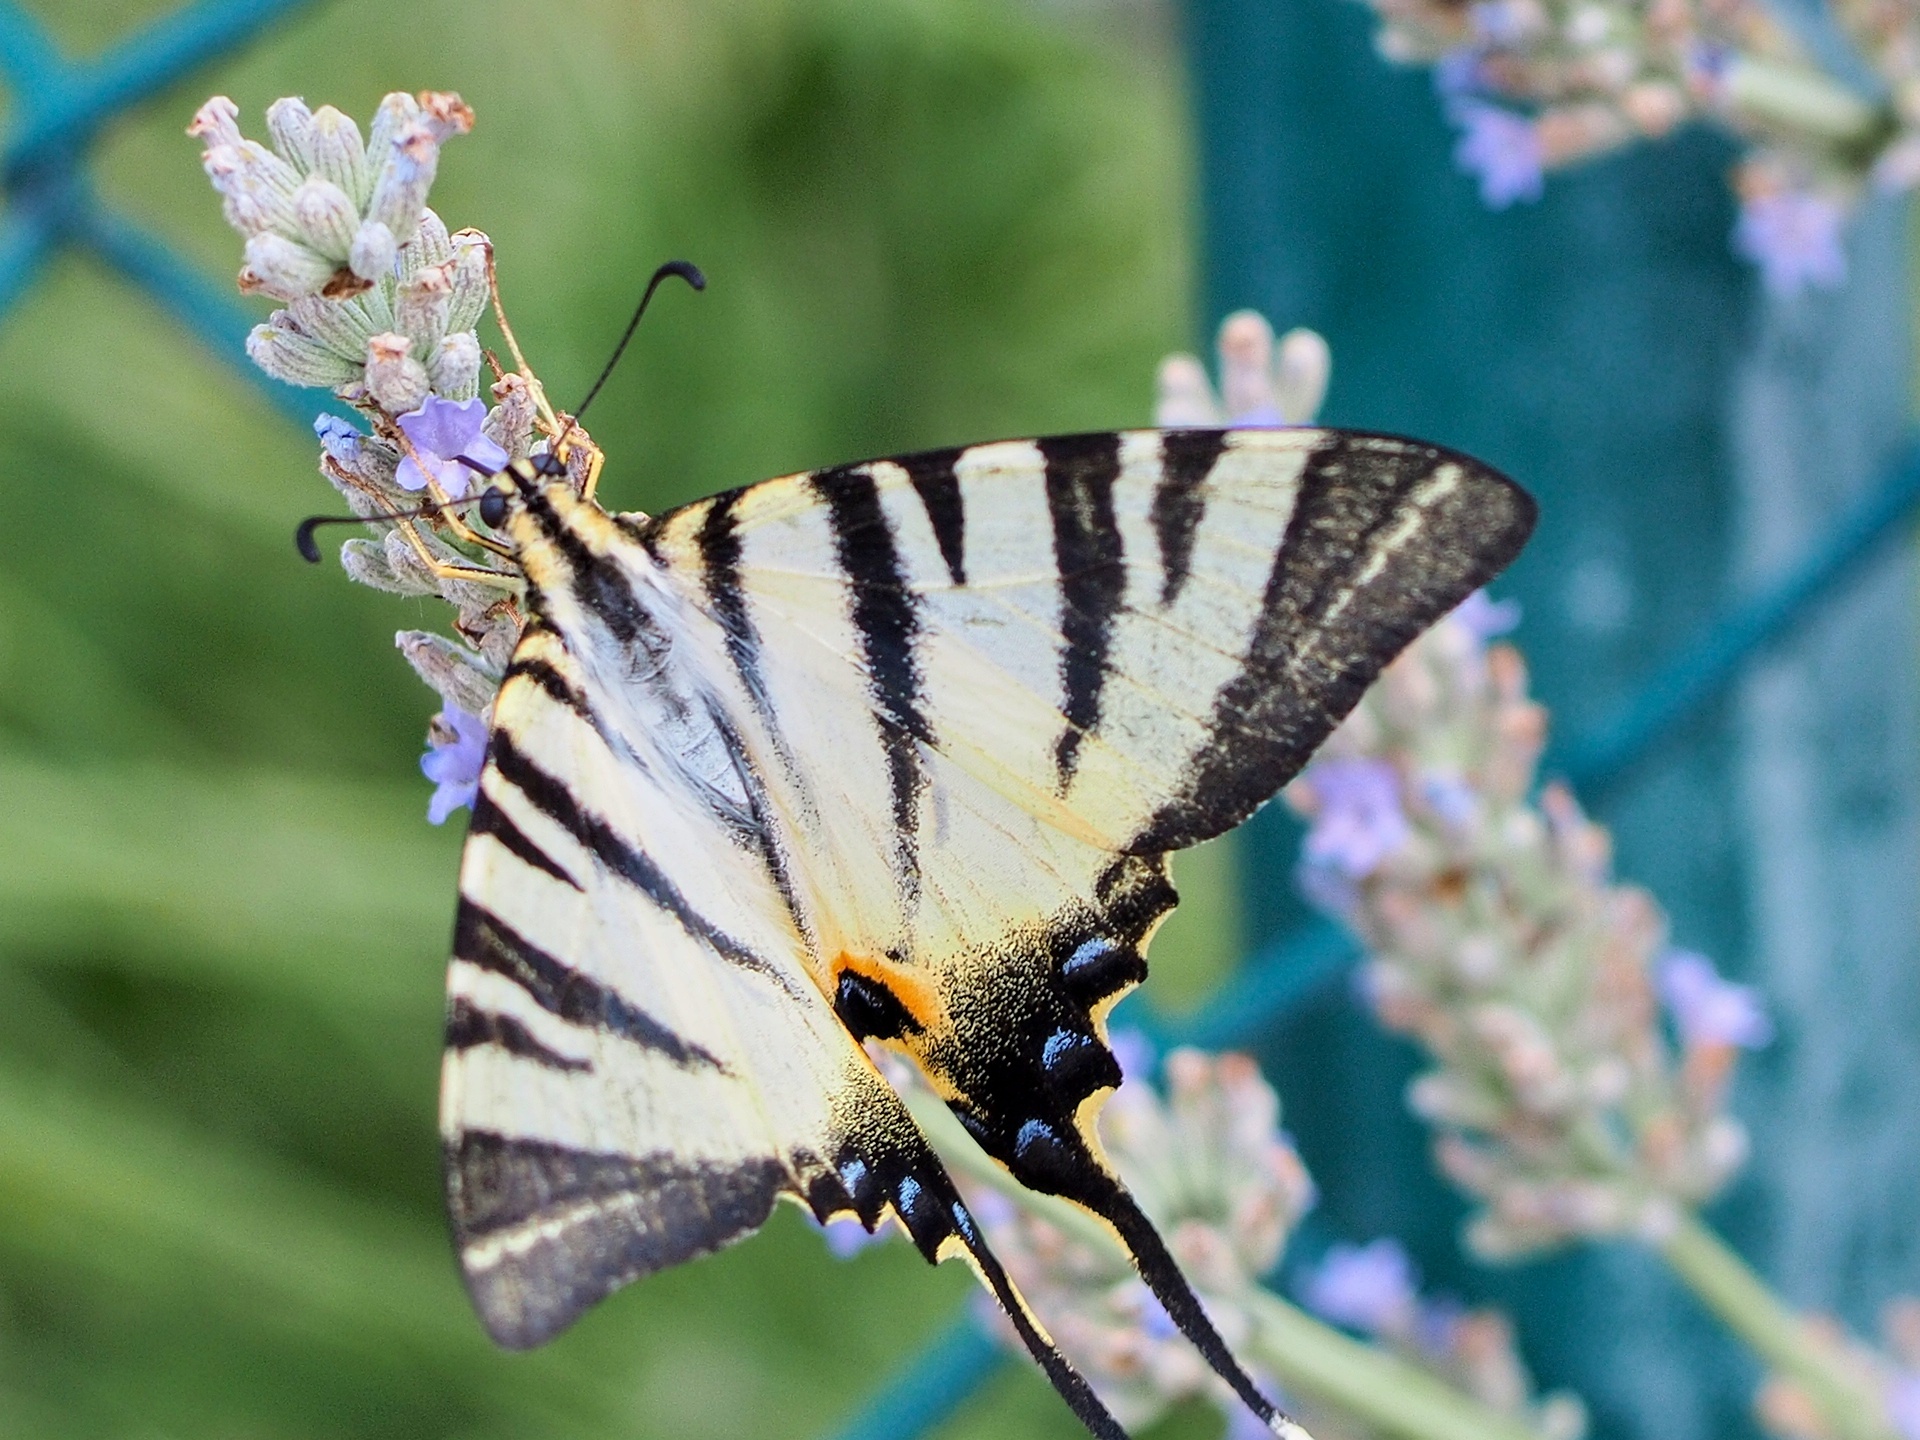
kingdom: Animalia
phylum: Arthropoda
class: Insecta
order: Lepidoptera
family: Papilionidae
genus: Iphiclides
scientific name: Iphiclides podalirius
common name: Scarce swallowtail
